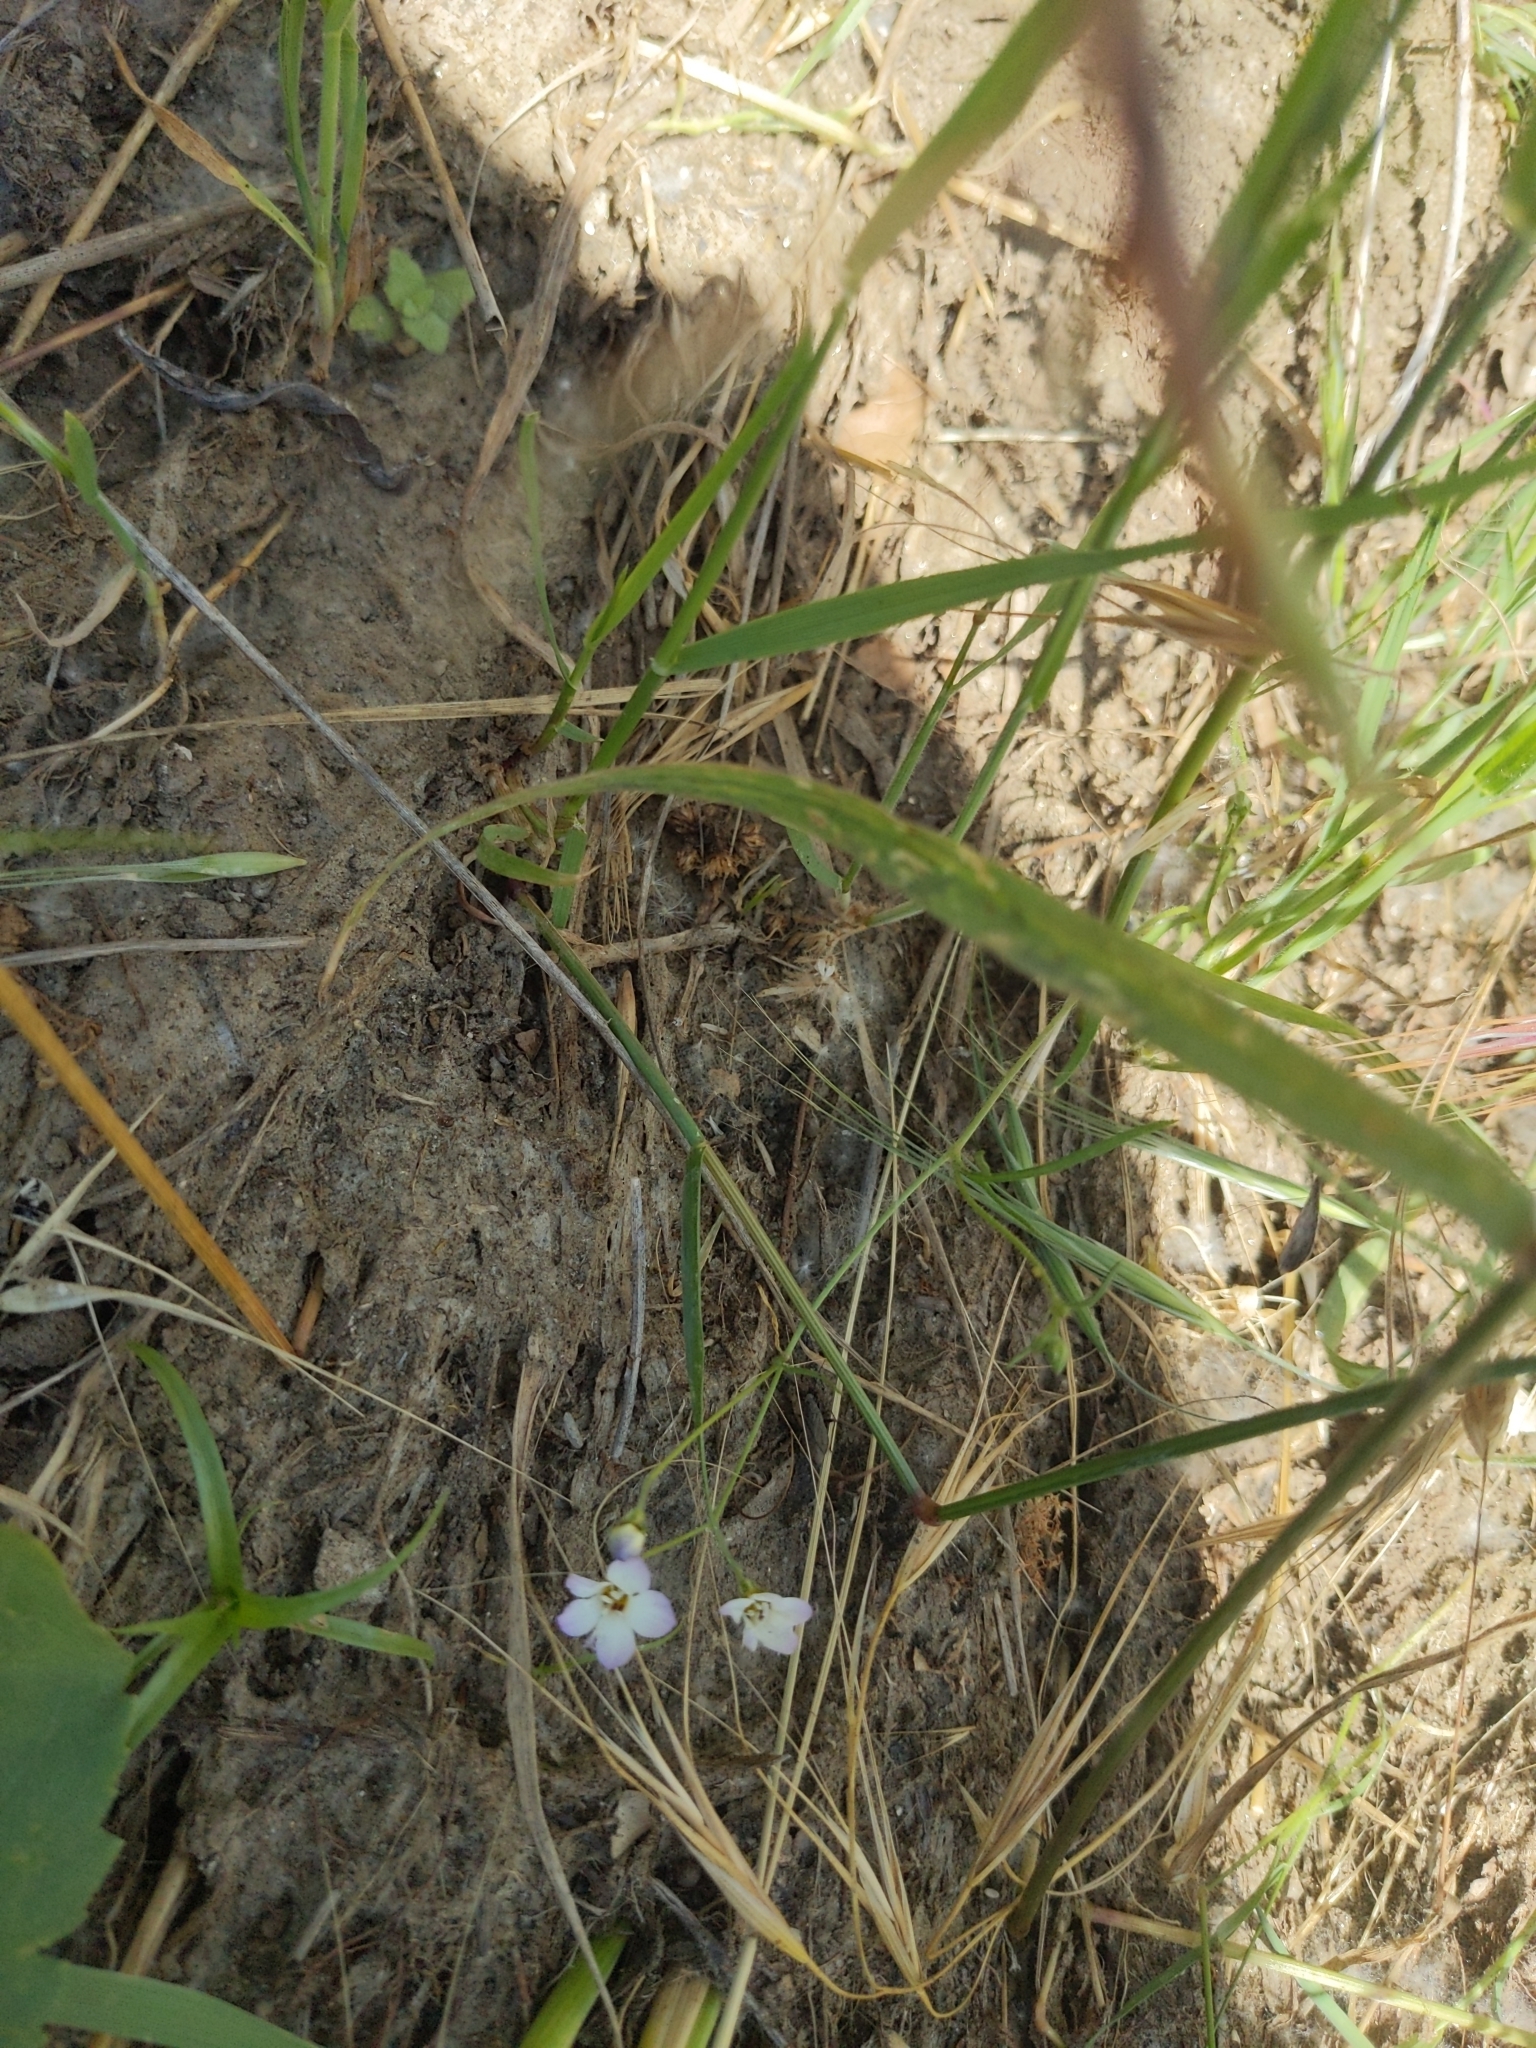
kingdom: Plantae
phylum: Tracheophyta
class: Magnoliopsida
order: Ericales
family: Polemoniaceae
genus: Gilia
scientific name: Gilia tricolor
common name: Bird's-eyes
